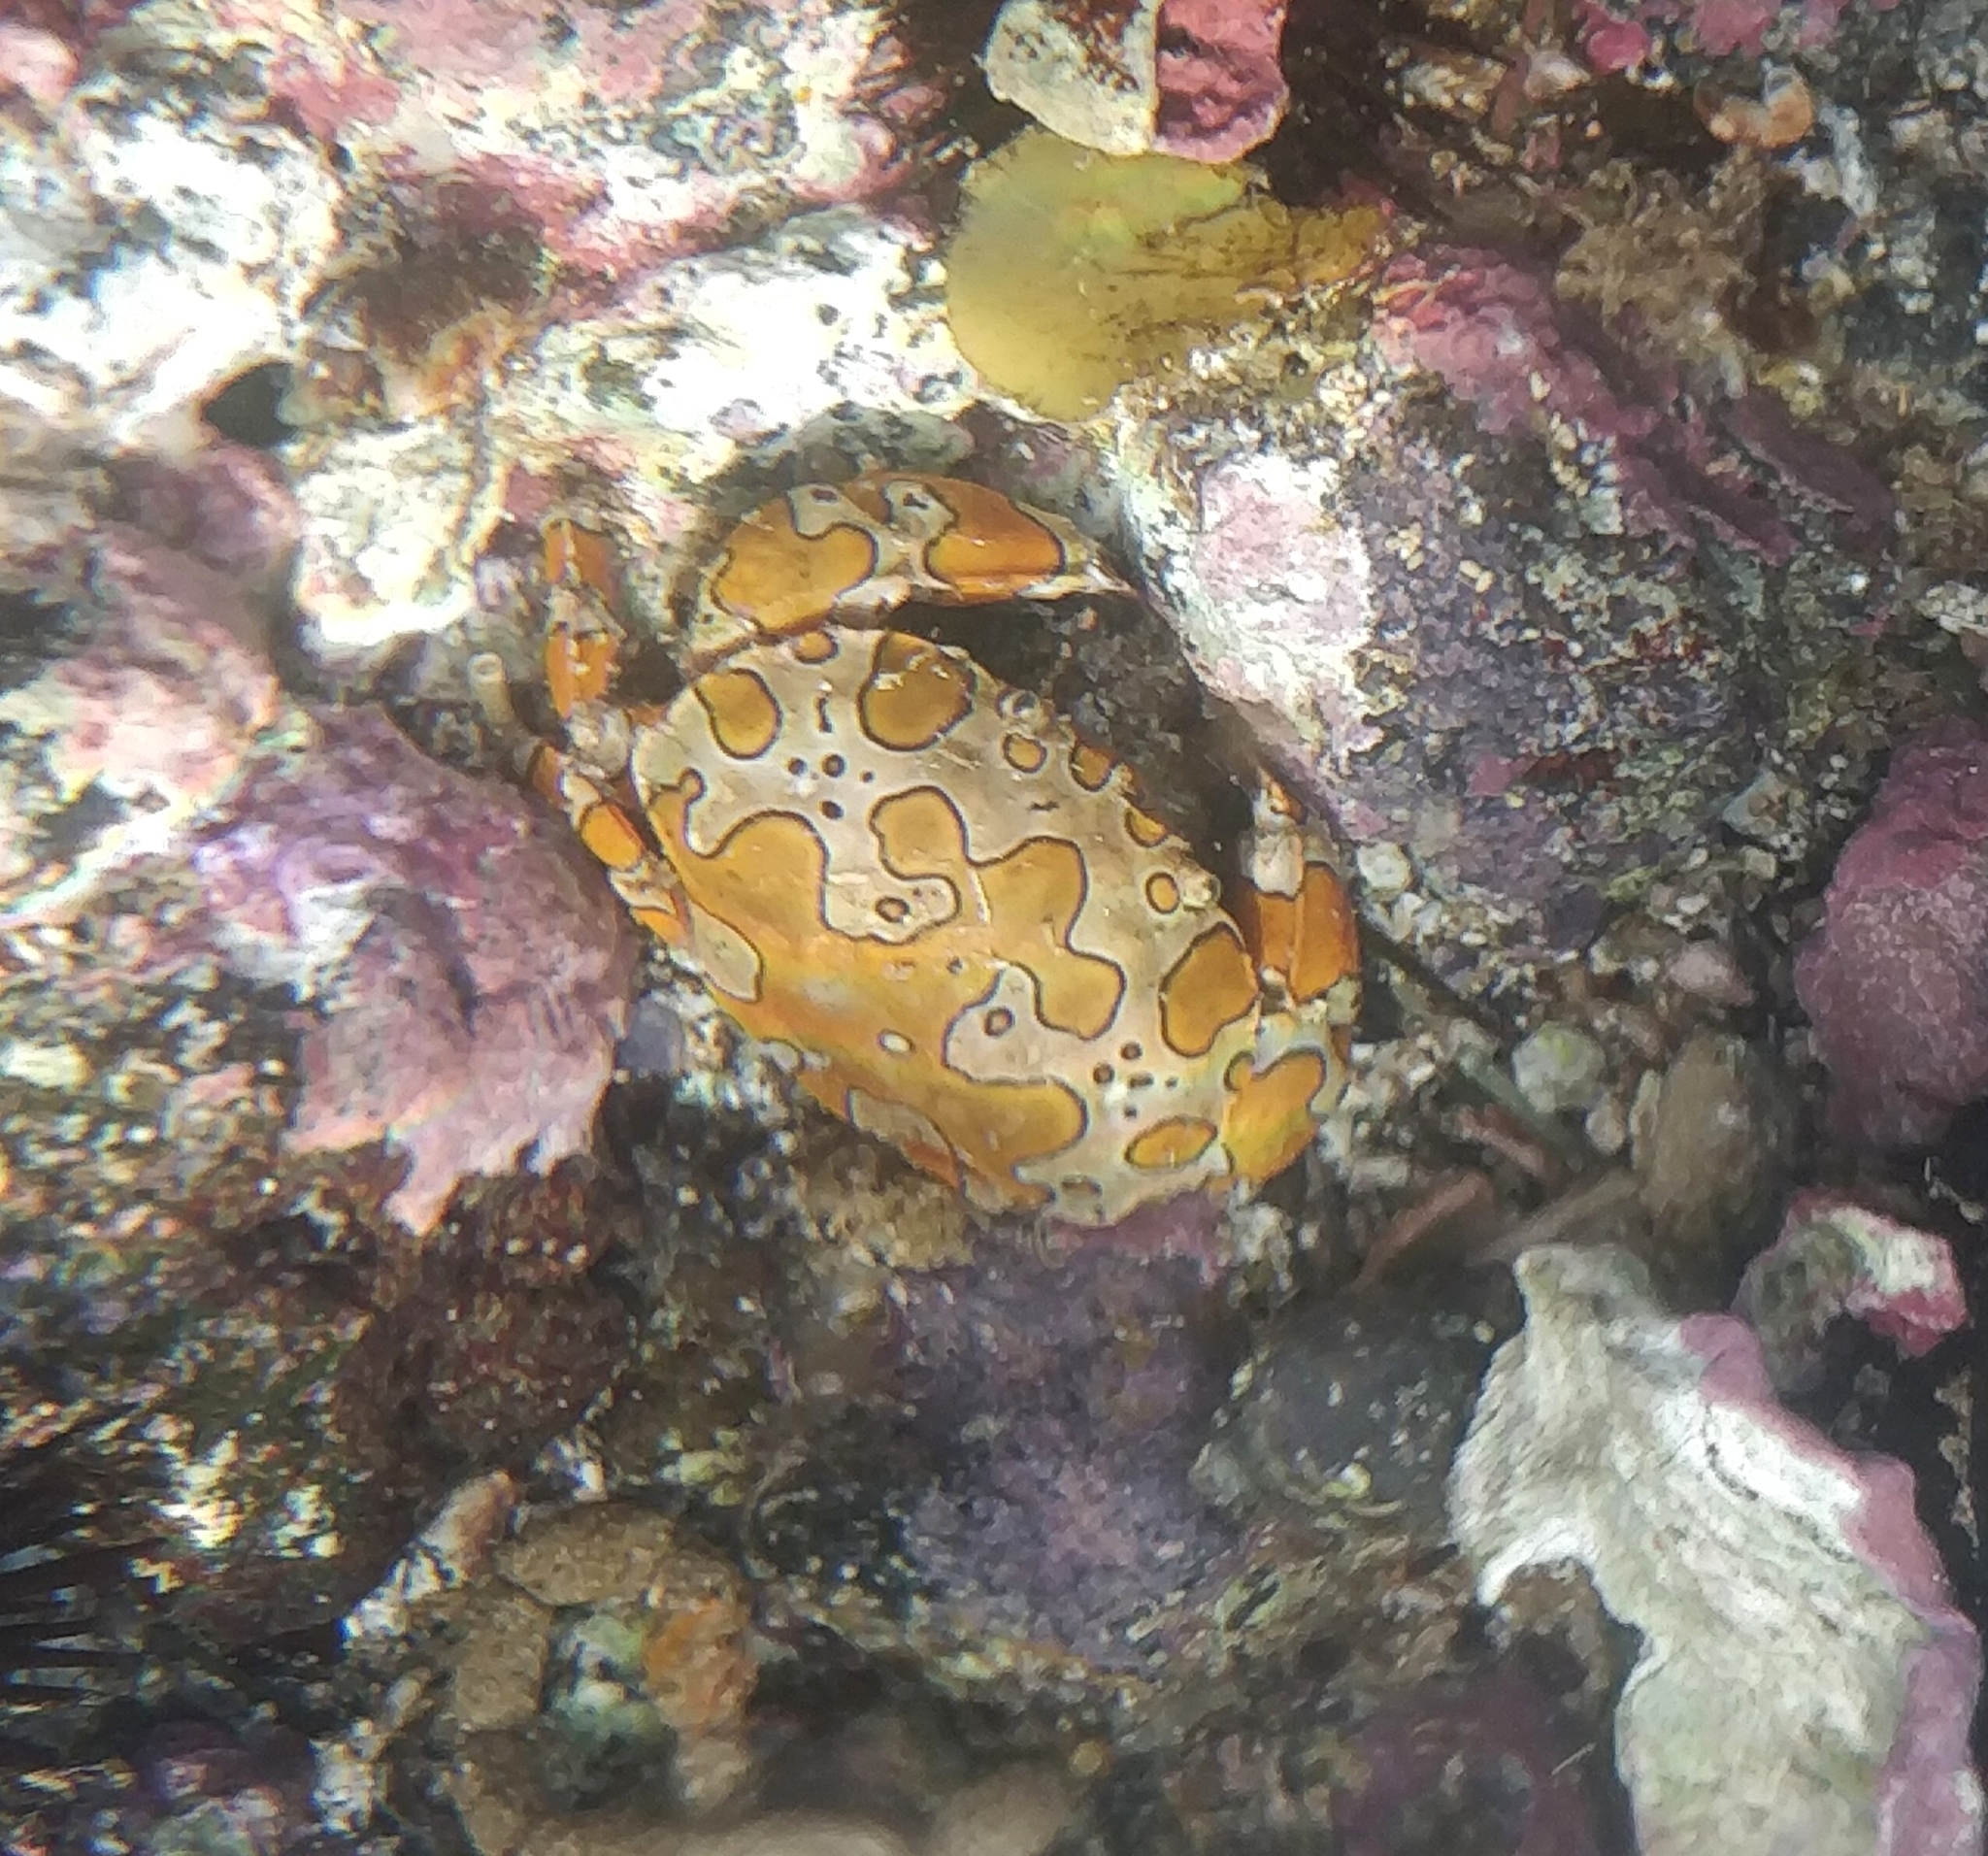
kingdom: Animalia
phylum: Arthropoda
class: Malacostraca
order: Decapoda
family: Xanthidae
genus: Platypodiella
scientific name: Platypodiella picta
